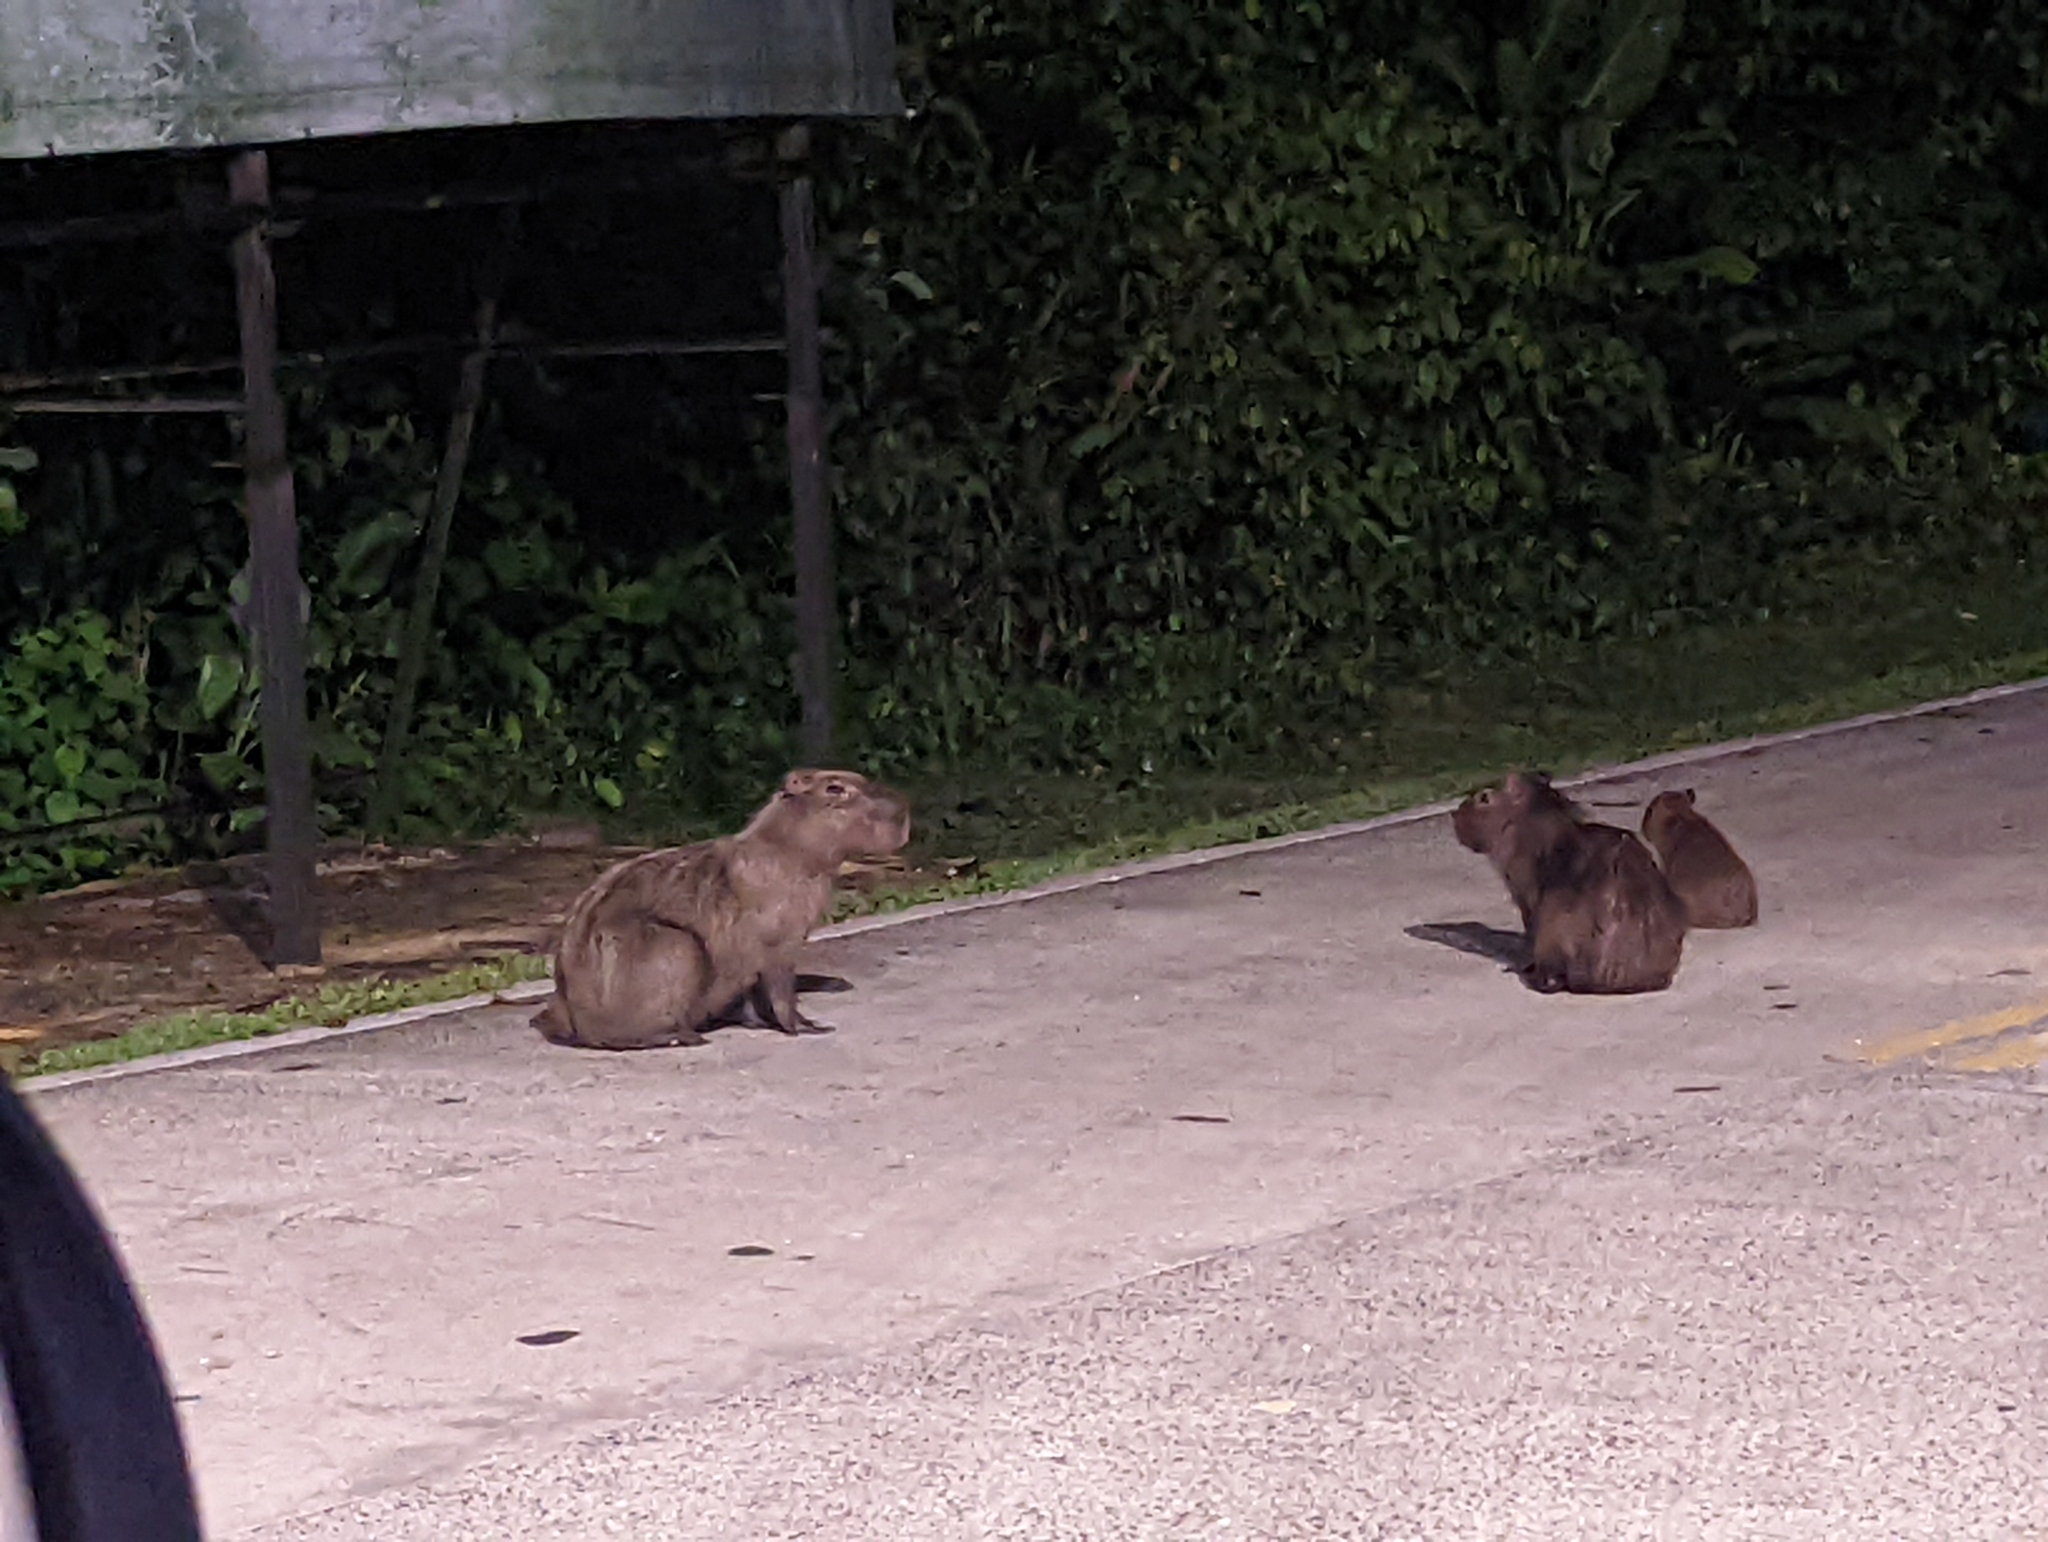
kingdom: Animalia
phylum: Chordata
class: Mammalia
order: Rodentia
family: Caviidae
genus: Hydrochoerus
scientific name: Hydrochoerus isthmius
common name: Lesser capybara
